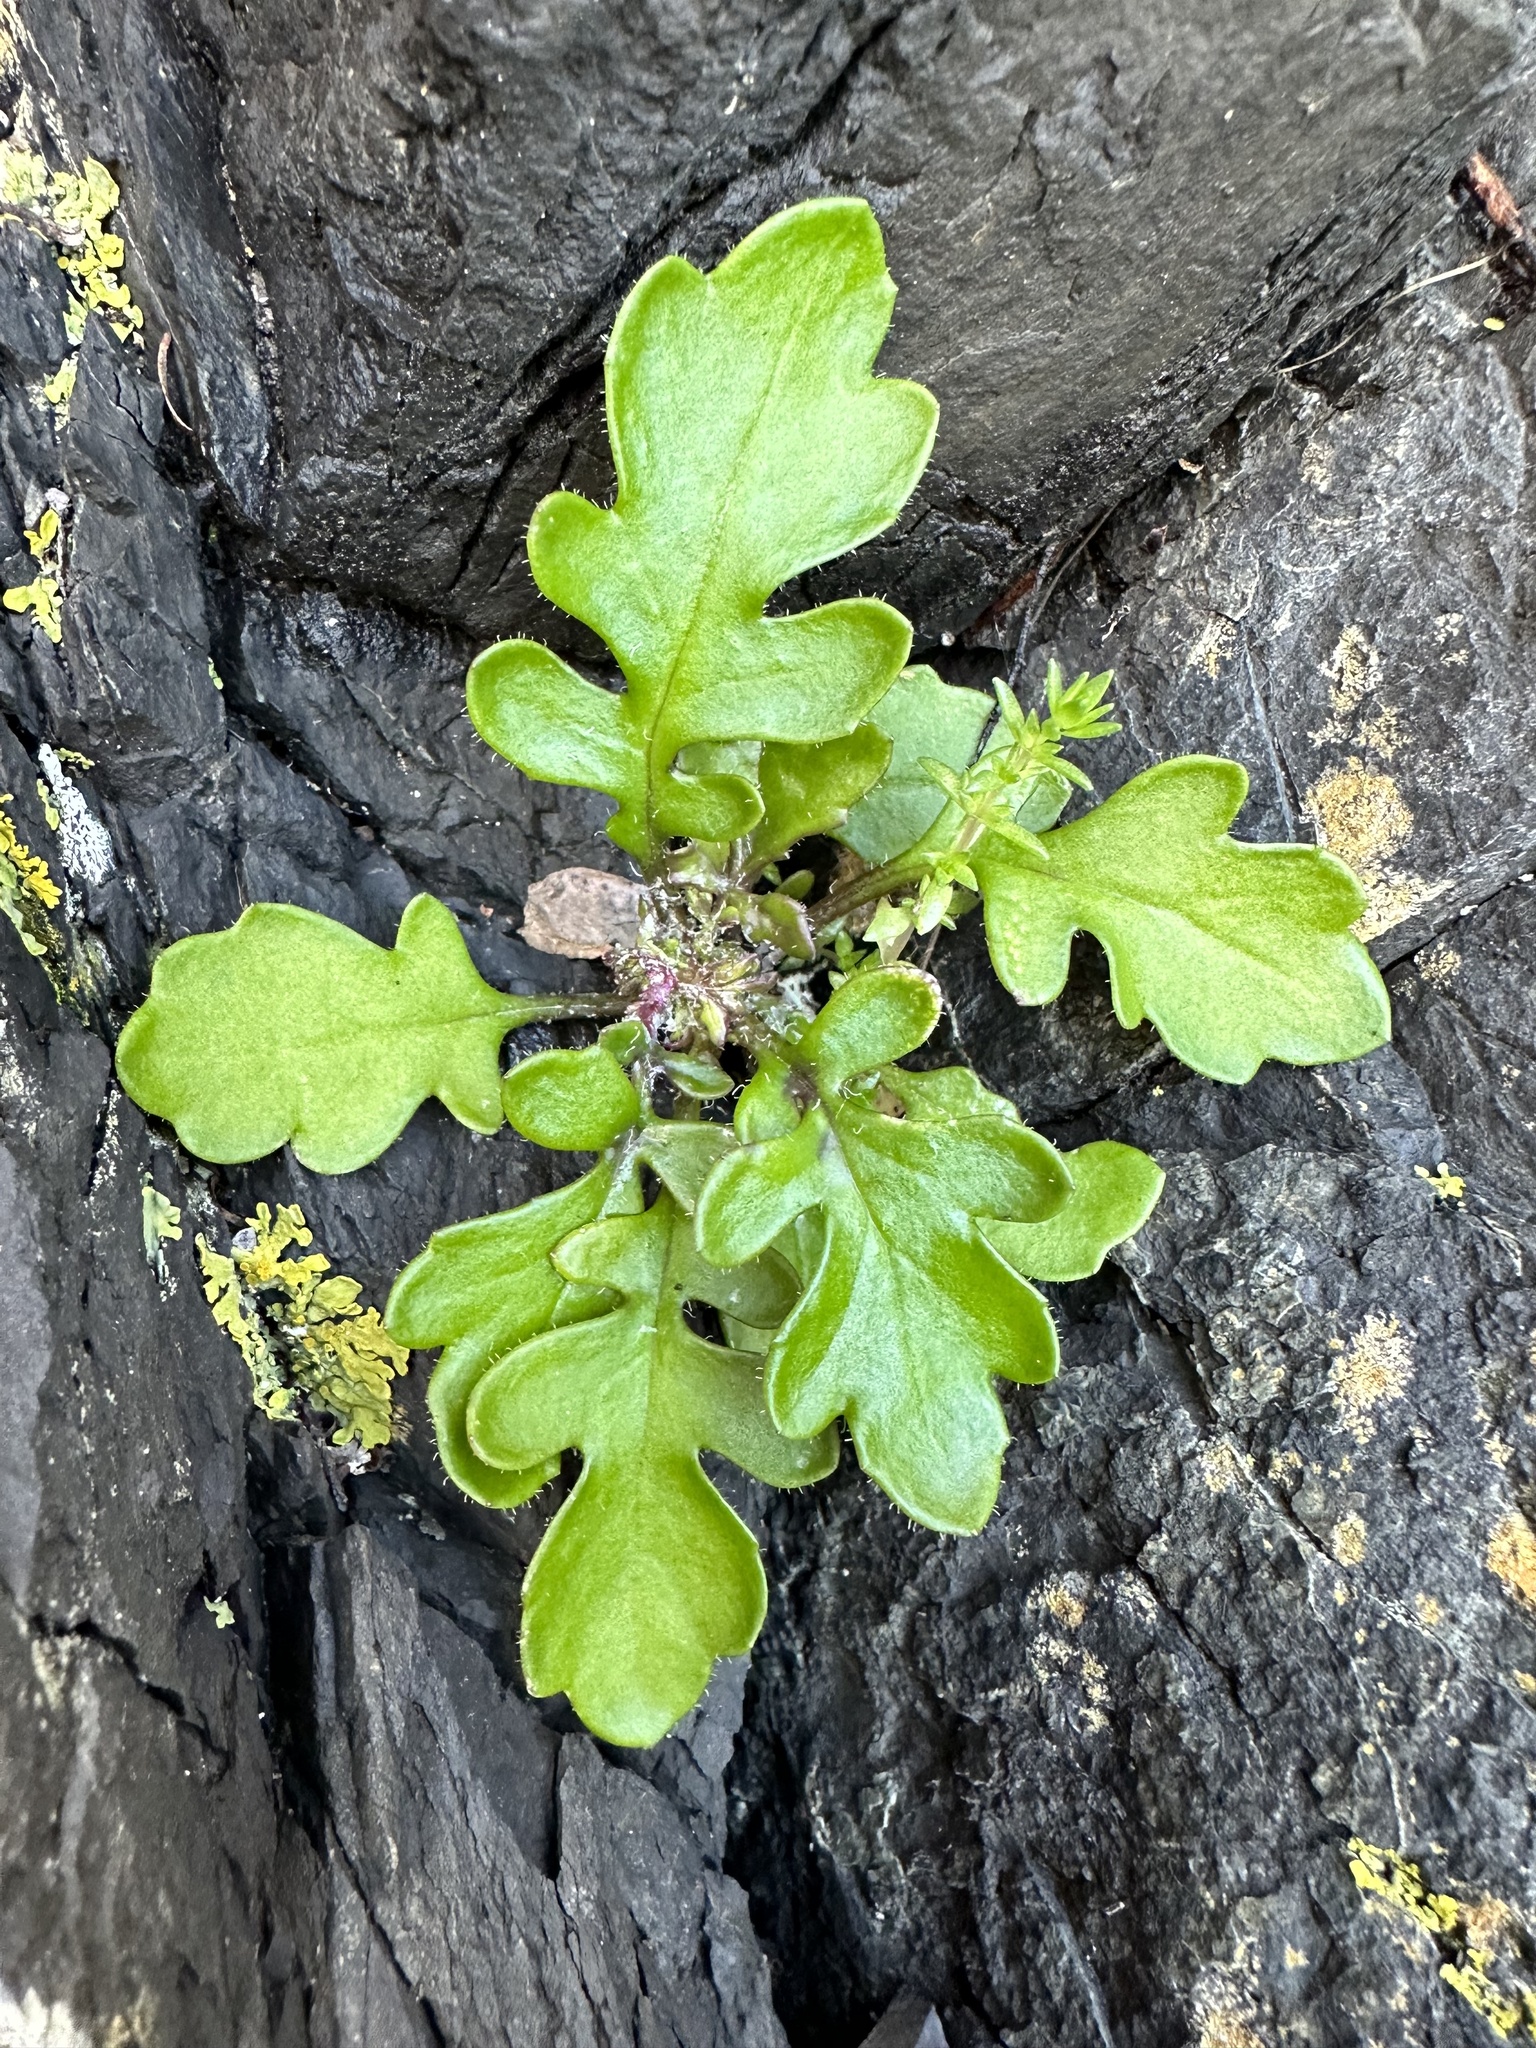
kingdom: Plantae
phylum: Tracheophyta
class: Magnoliopsida
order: Asterales
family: Asteraceae
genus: Senecio
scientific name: Senecio lautus
